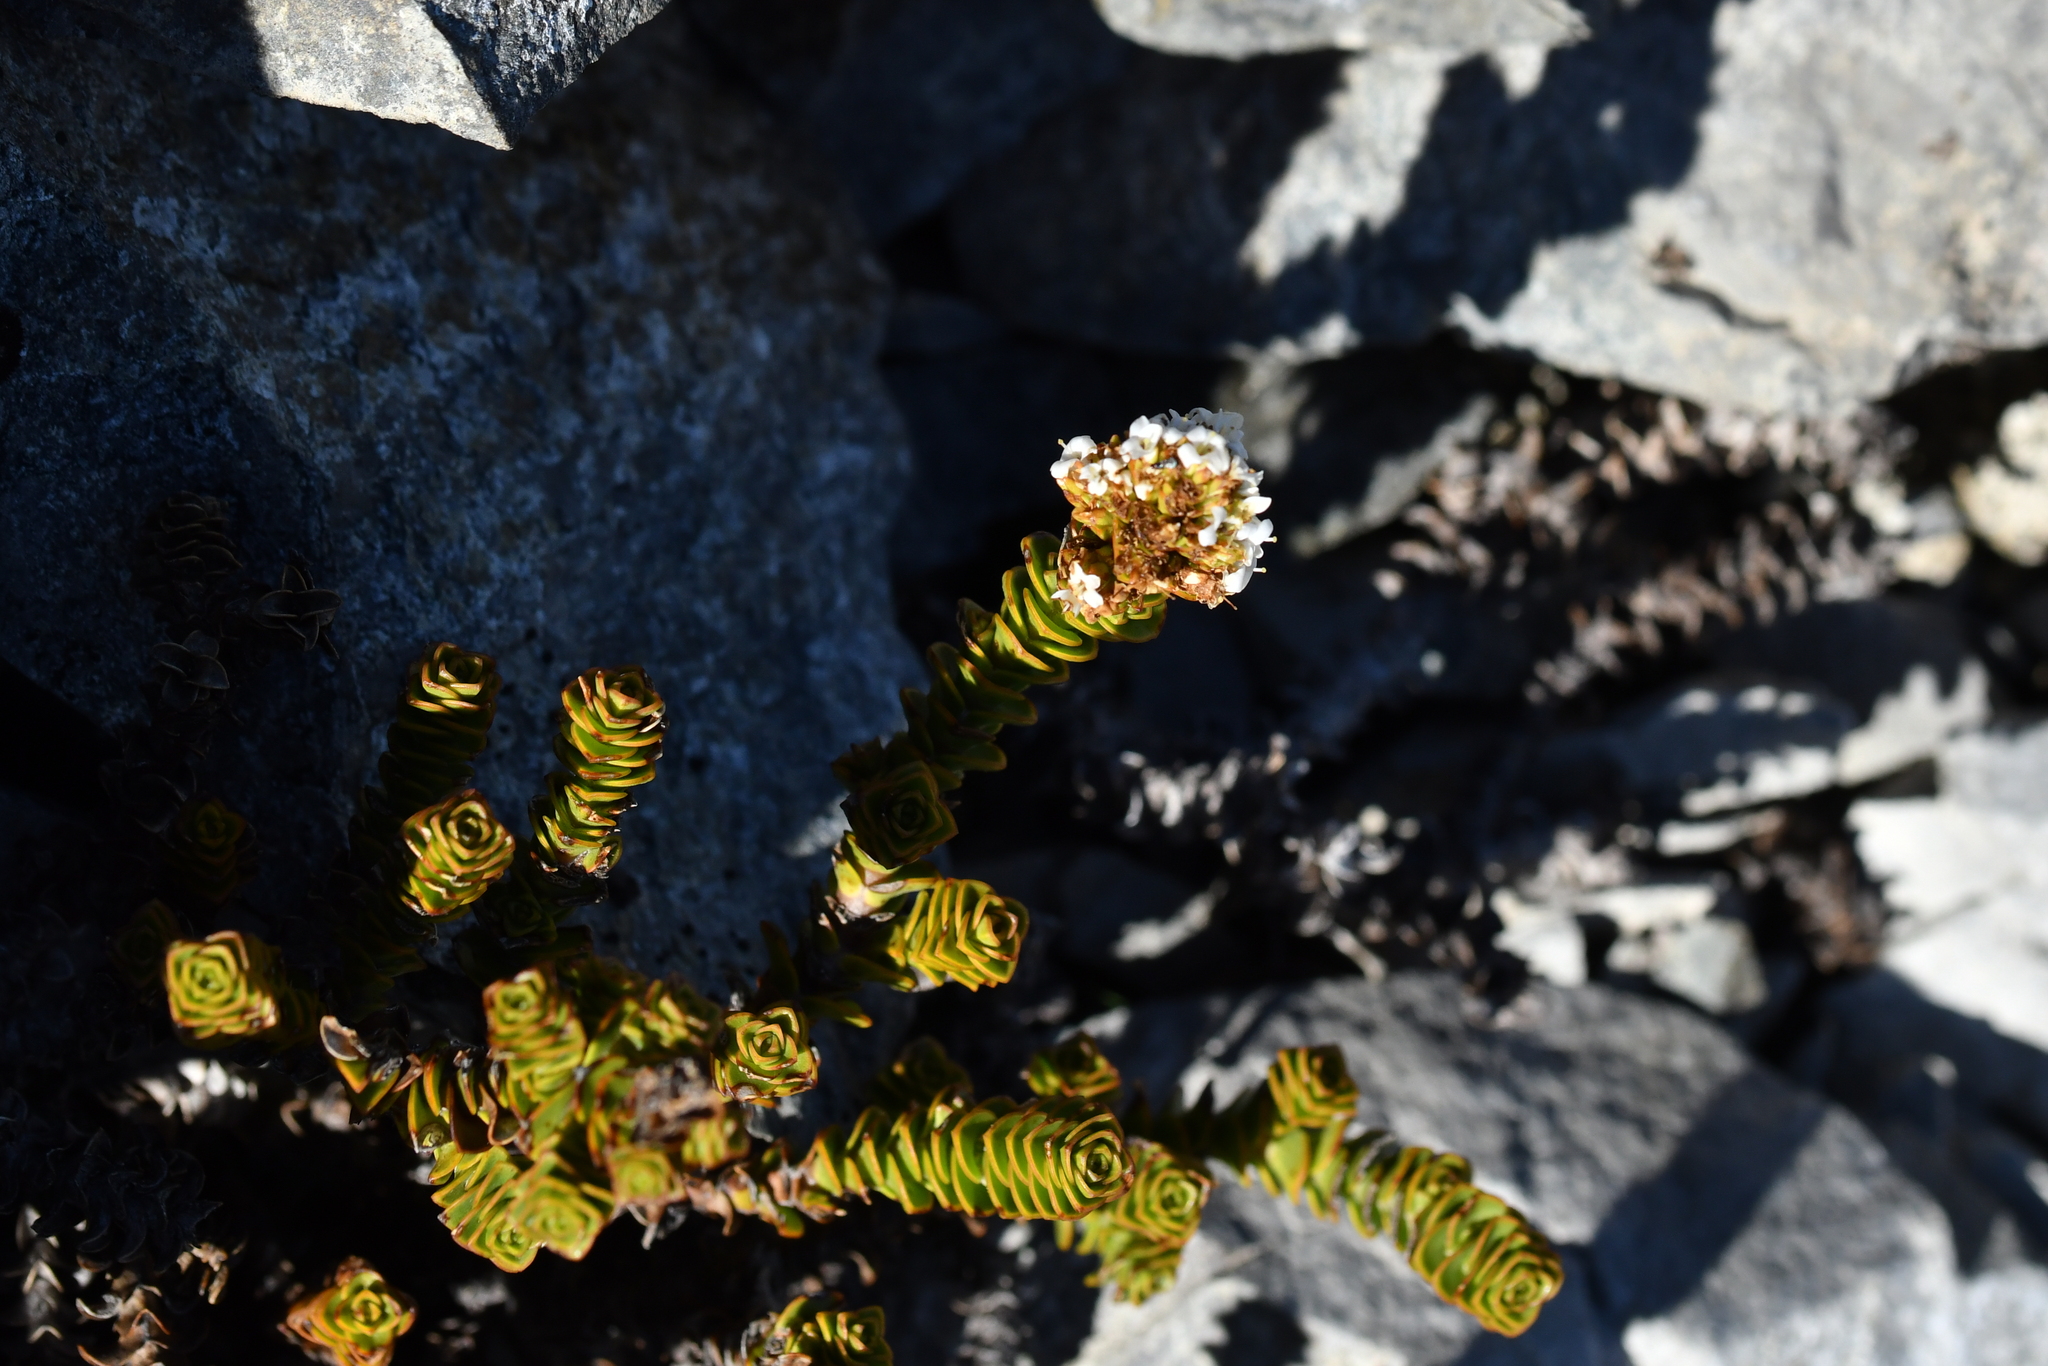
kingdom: Plantae
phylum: Tracheophyta
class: Magnoliopsida
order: Lamiales
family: Plantaginaceae
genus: Veronica
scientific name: Veronica epacridea
